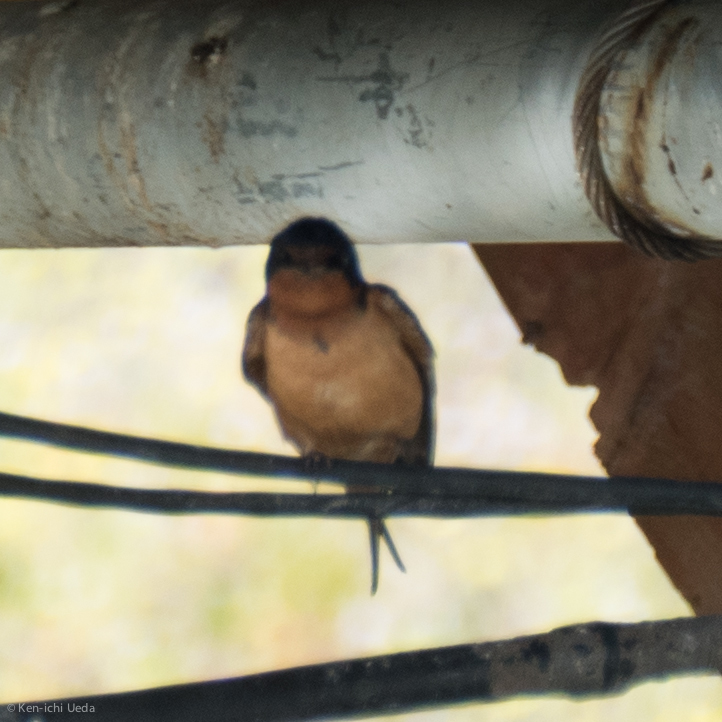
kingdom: Animalia
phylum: Chordata
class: Aves
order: Passeriformes
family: Hirundinidae
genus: Hirundo
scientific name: Hirundo rustica
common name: Barn swallow
